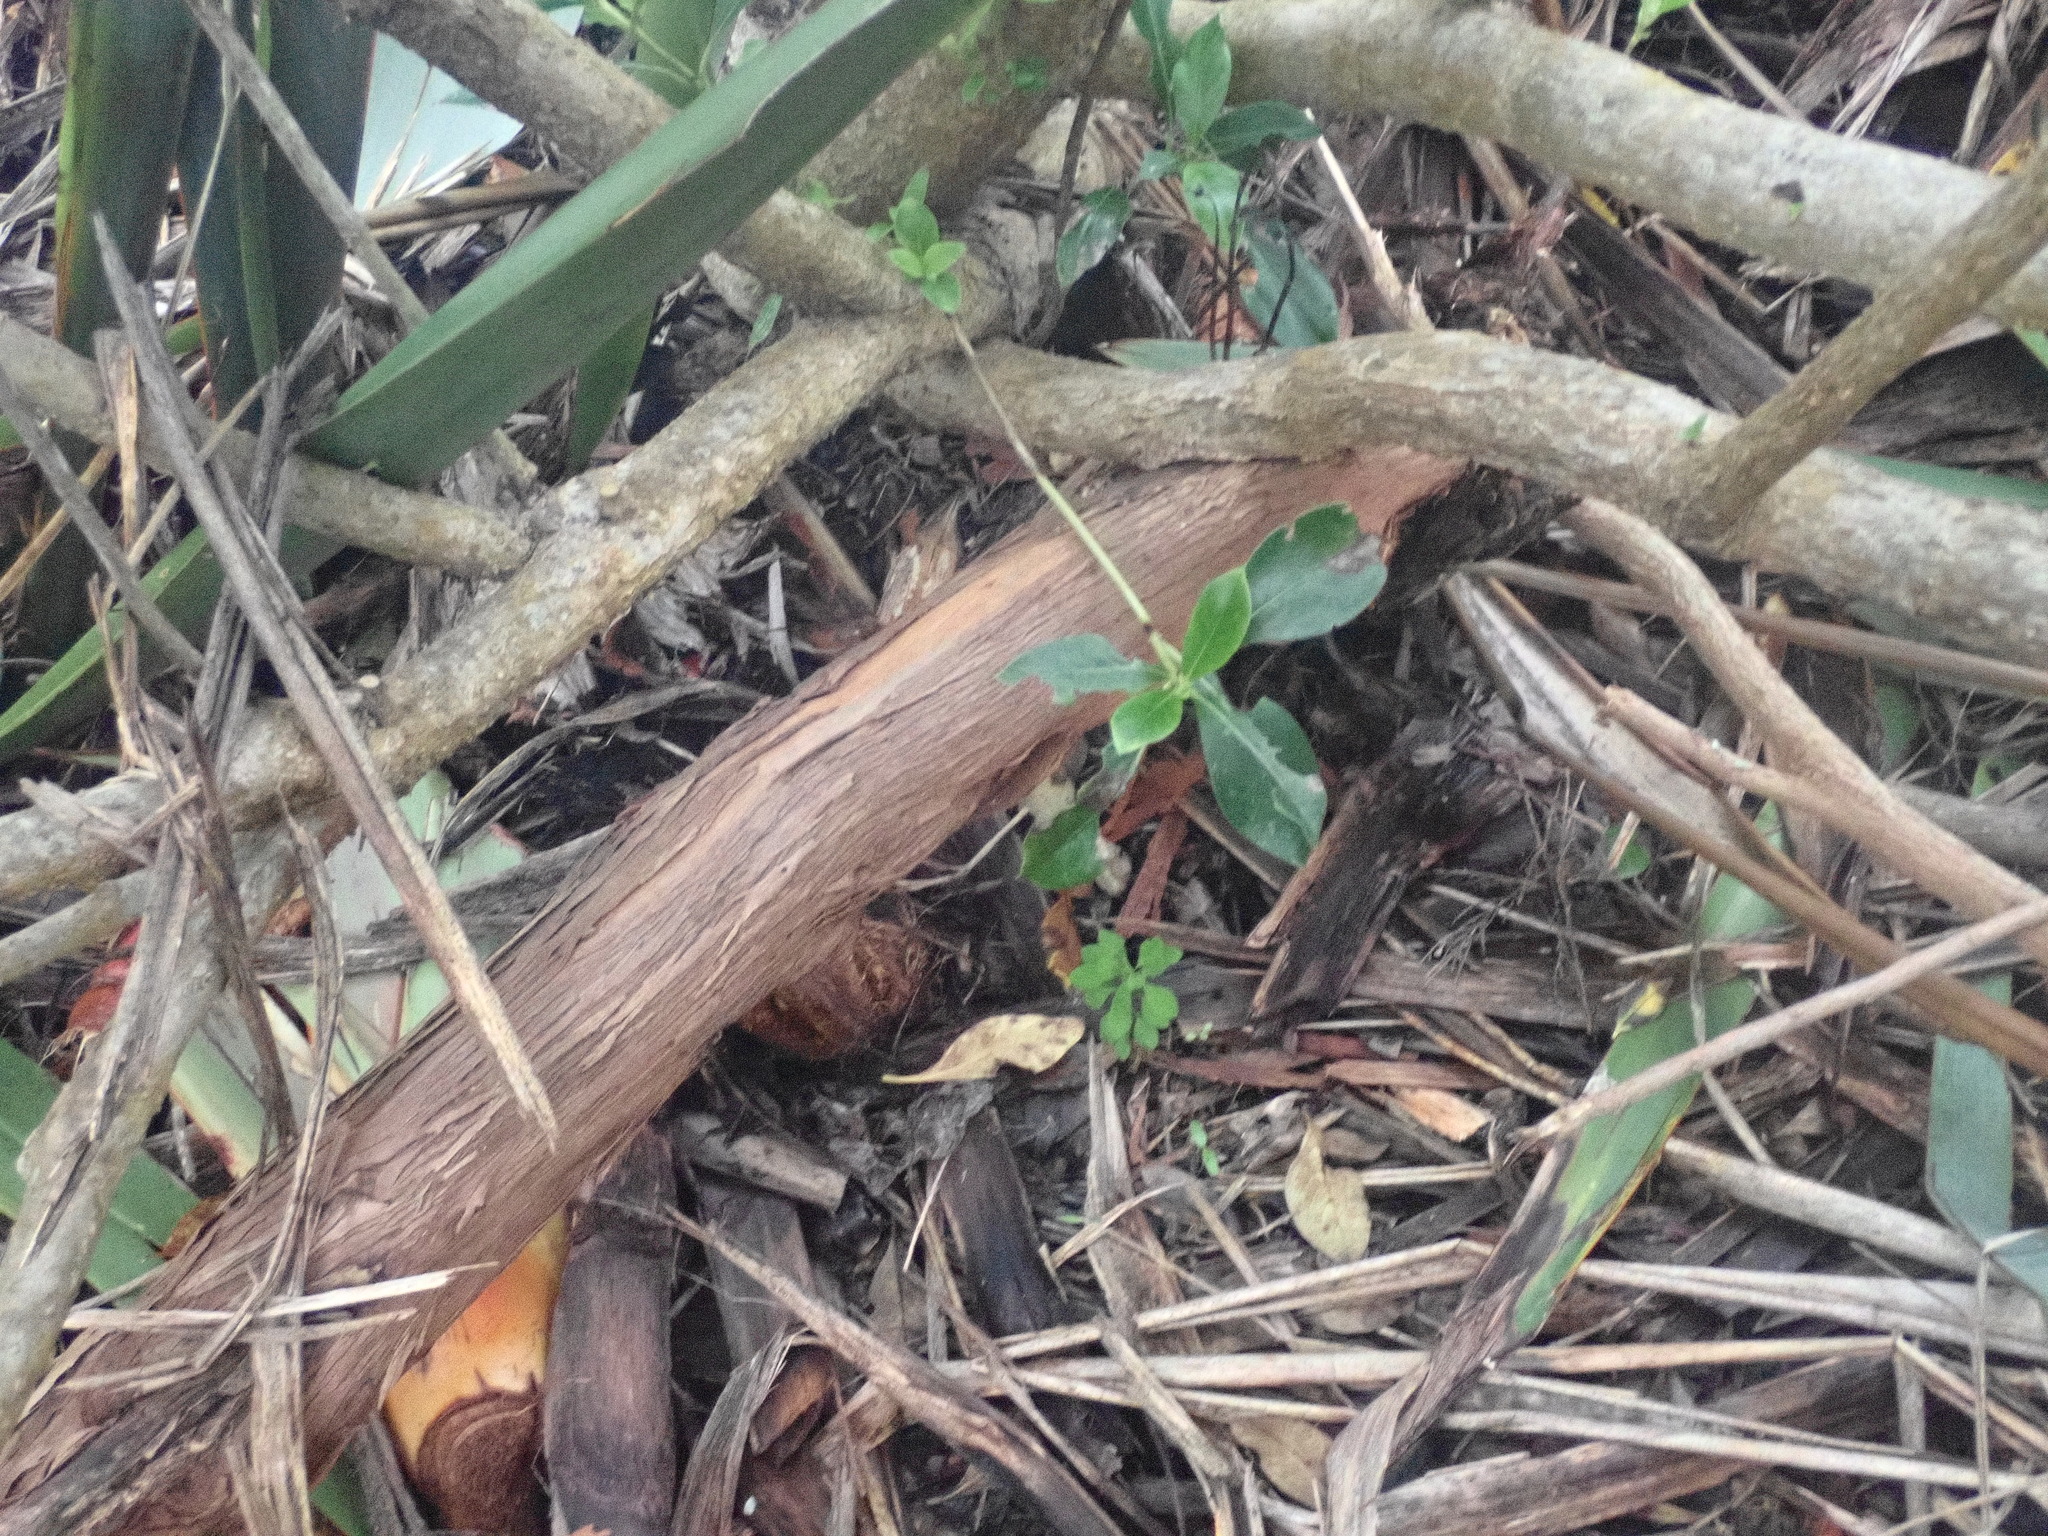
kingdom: Plantae
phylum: Tracheophyta
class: Magnoliopsida
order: Sapindales
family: Sapindaceae
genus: Dodonaea
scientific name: Dodonaea viscosa
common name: Hopbush
